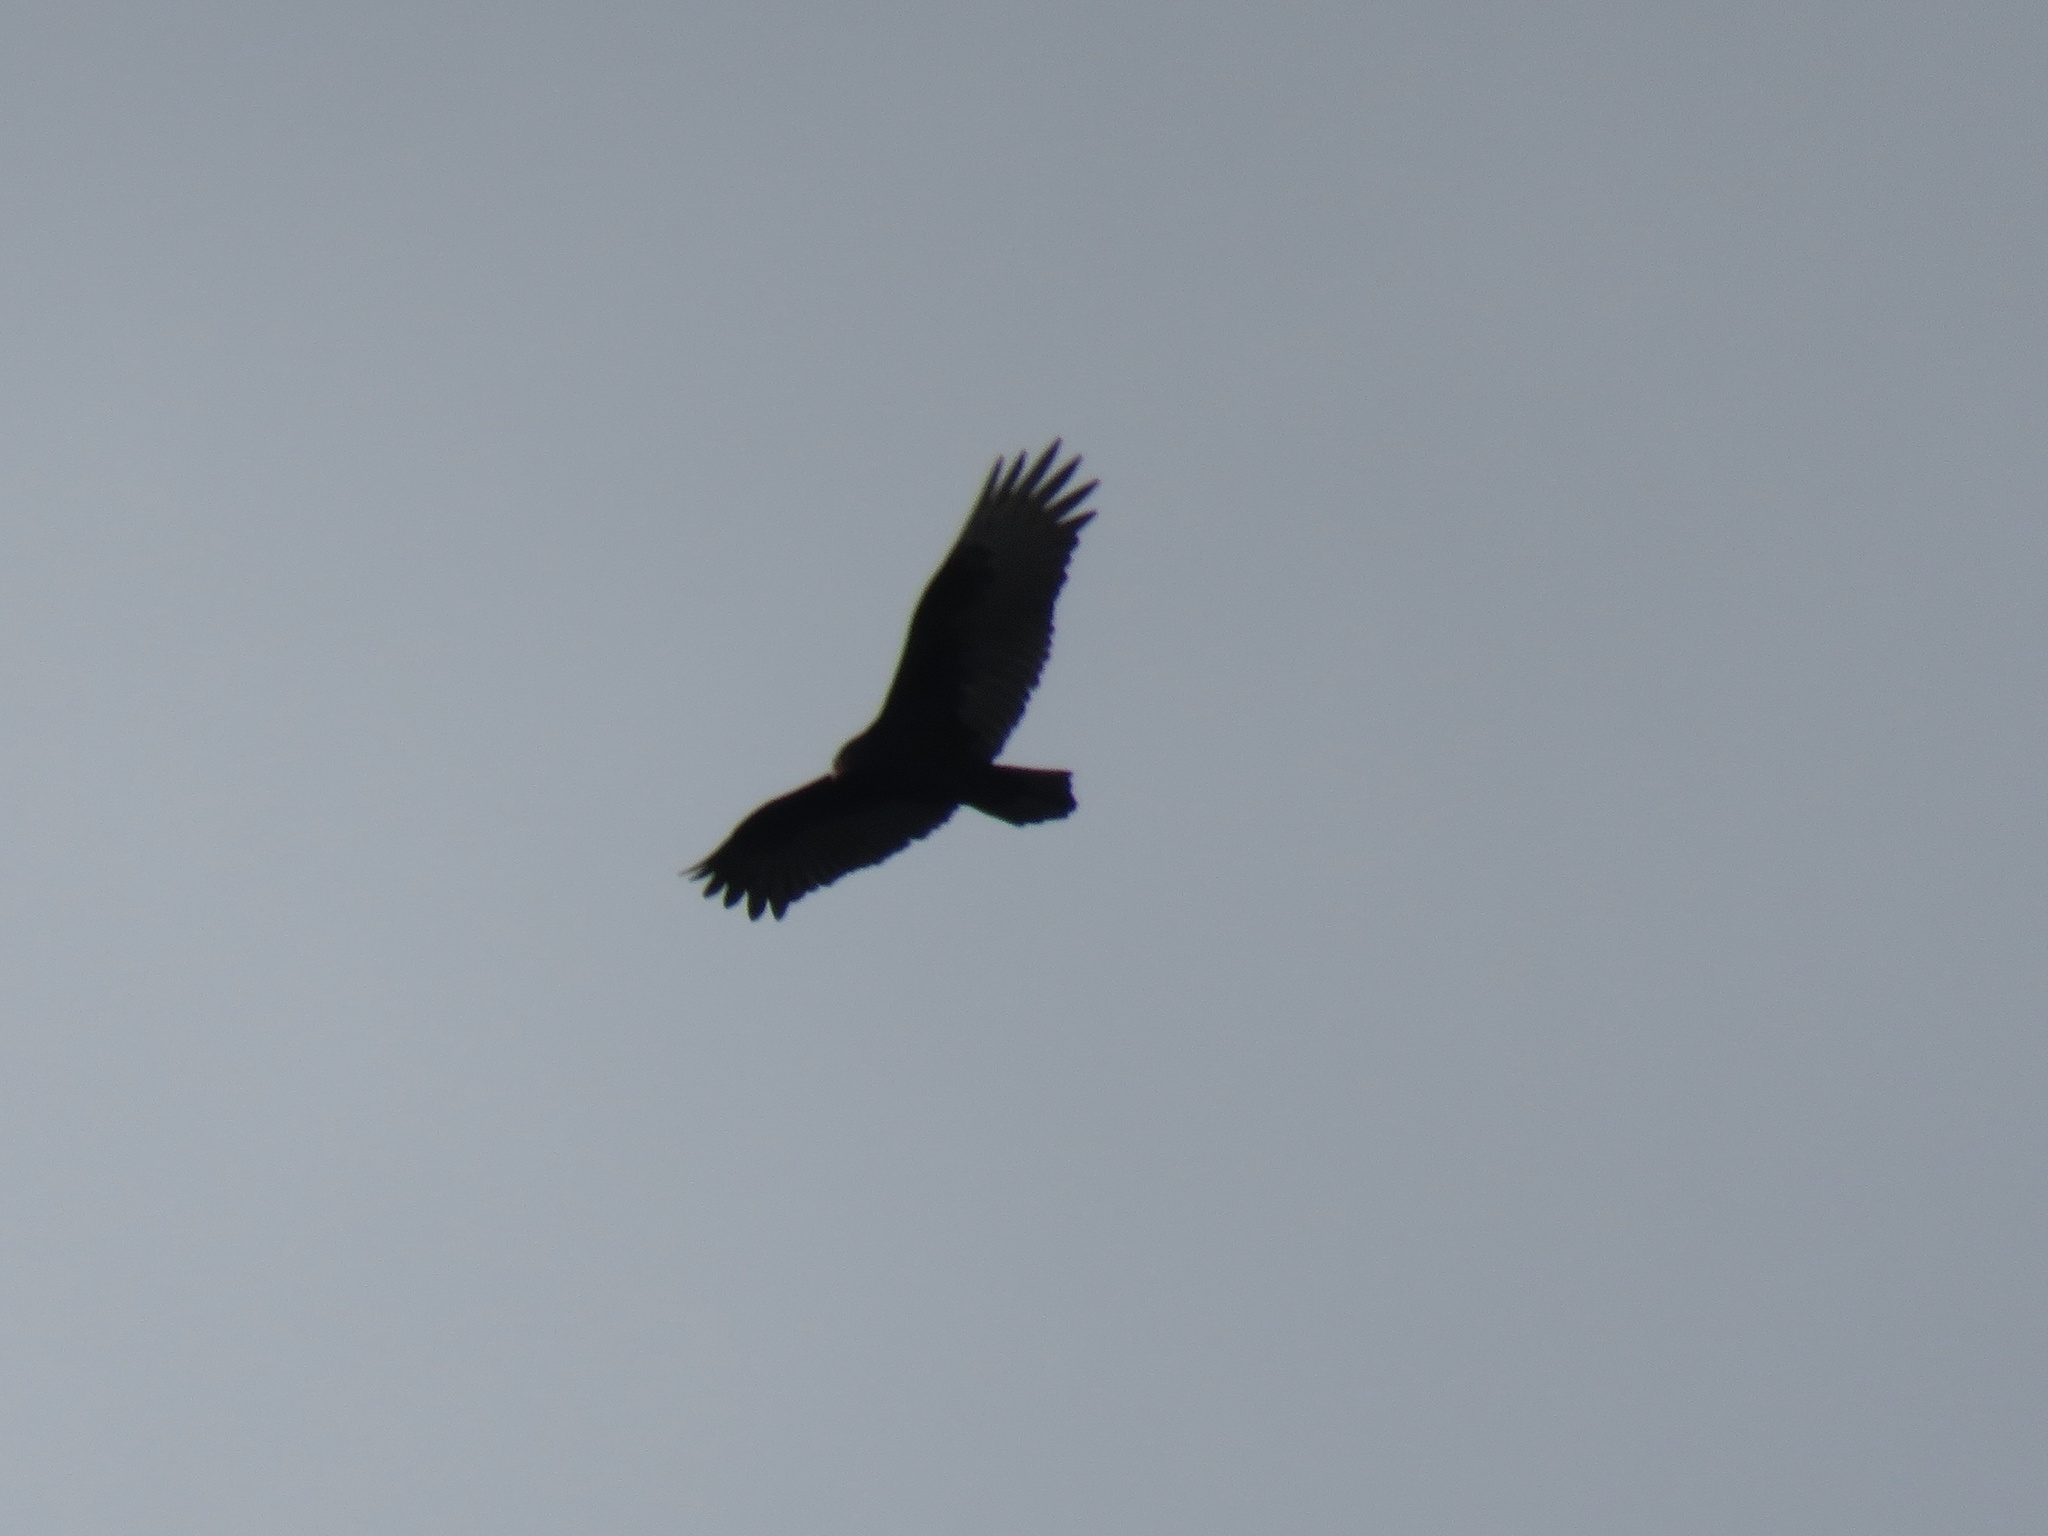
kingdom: Animalia
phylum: Chordata
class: Aves
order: Accipitriformes
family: Cathartidae
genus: Cathartes
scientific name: Cathartes aura
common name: Turkey vulture
